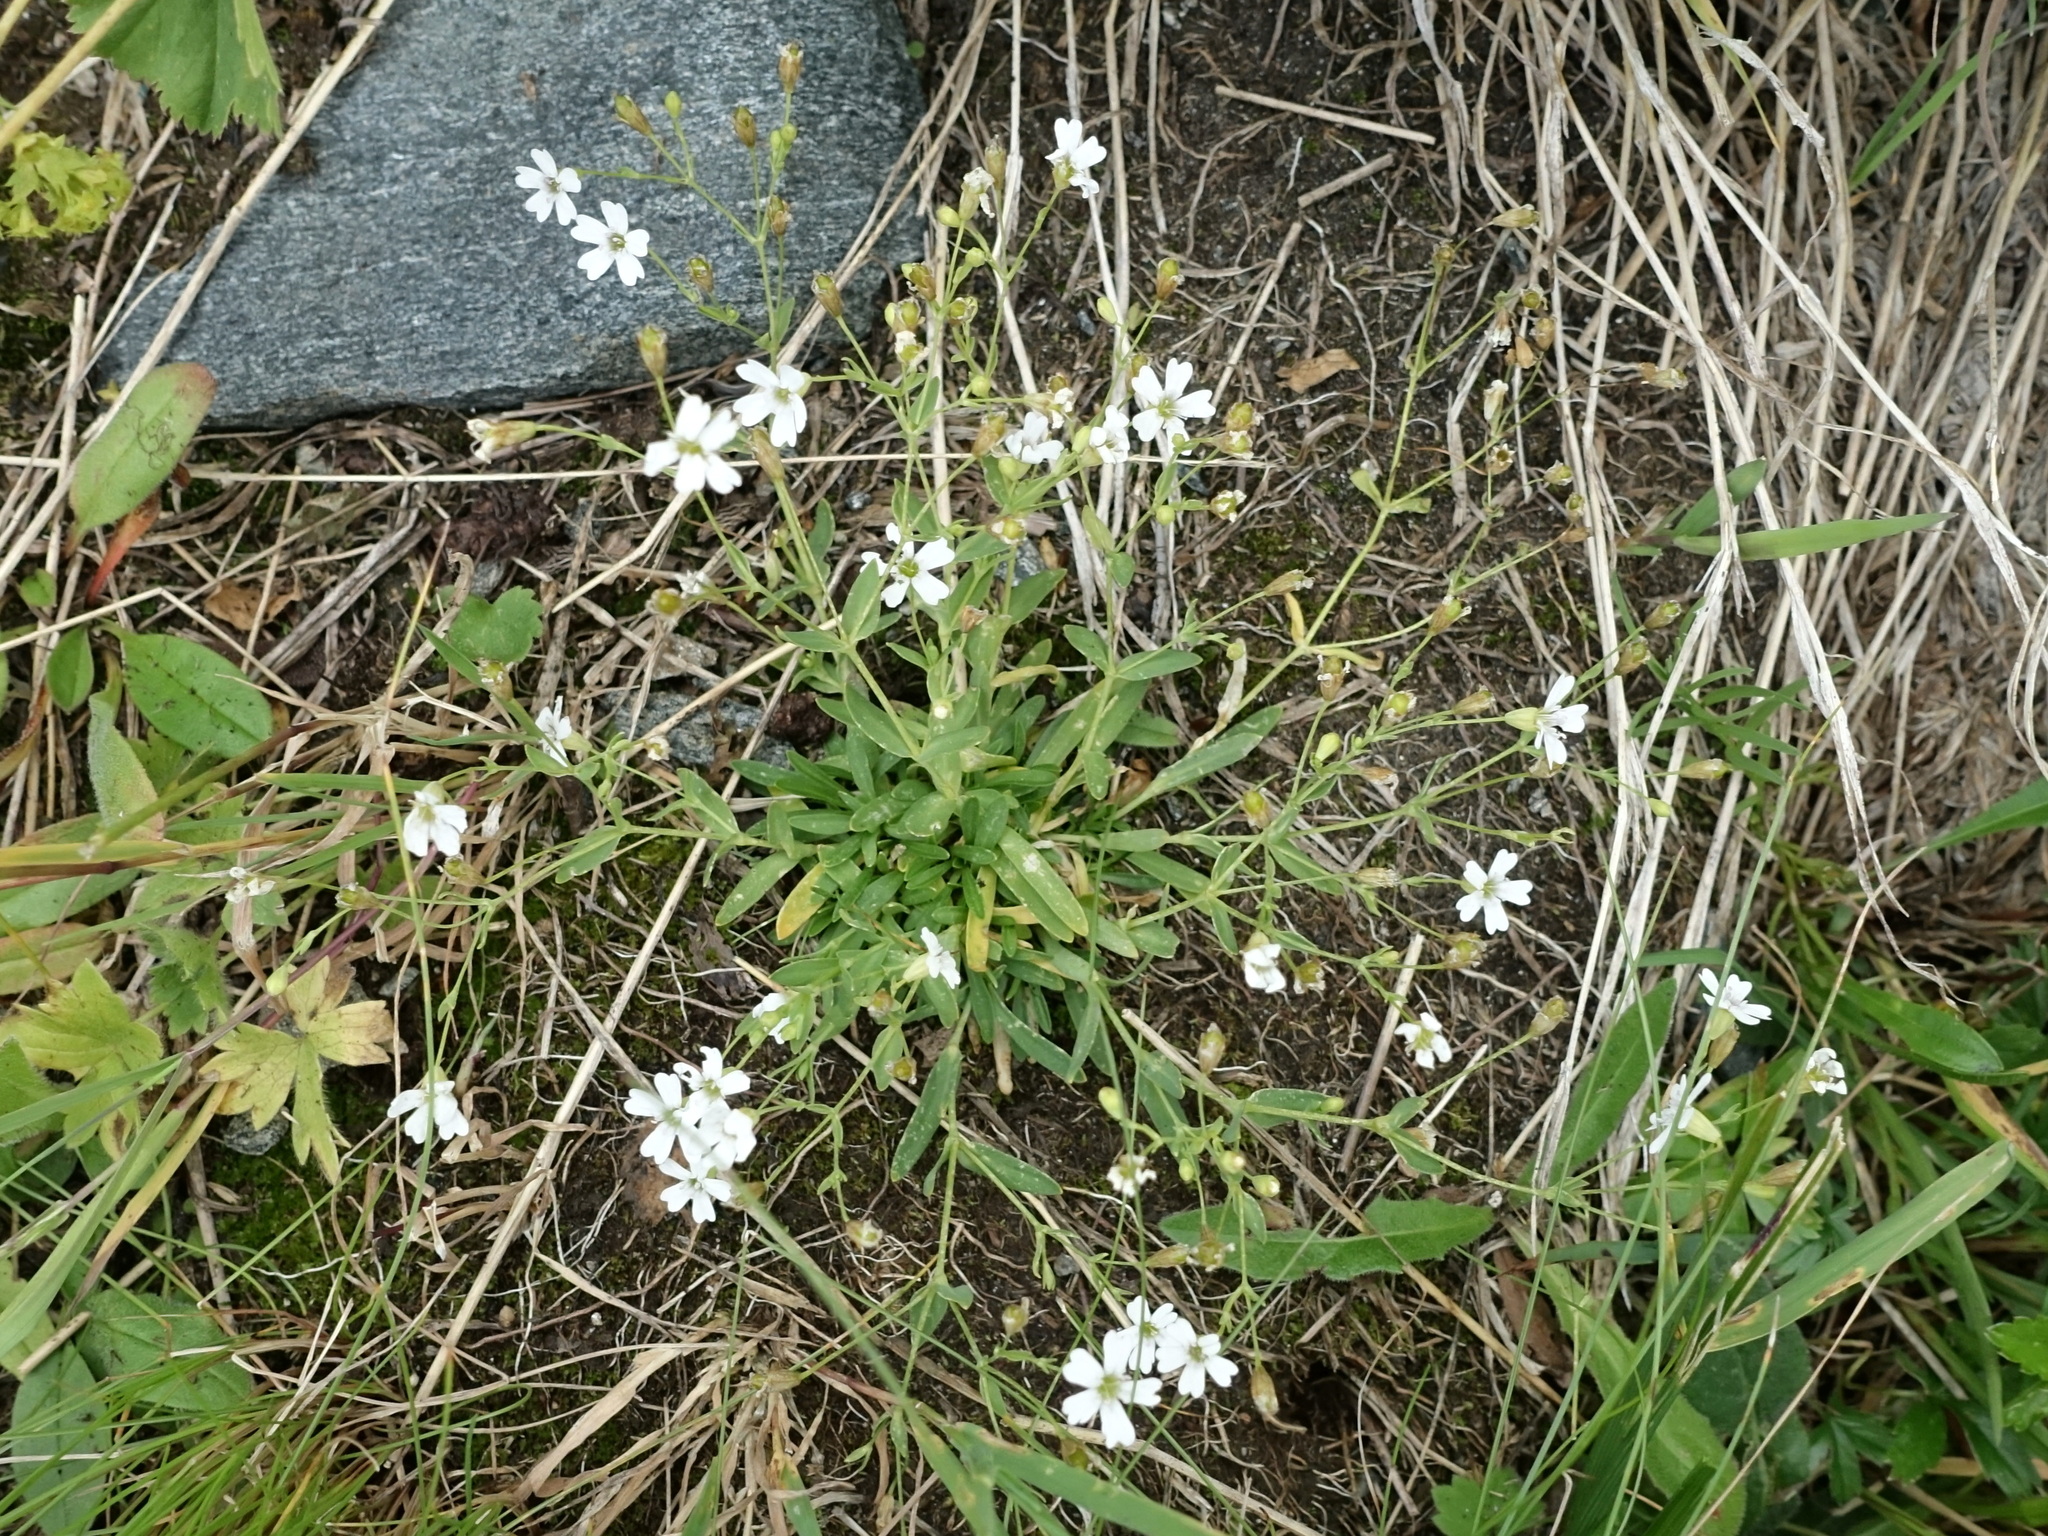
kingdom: Plantae
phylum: Tracheophyta
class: Magnoliopsida
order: Caryophyllales
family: Caryophyllaceae
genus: Atocion
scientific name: Atocion rupestre
